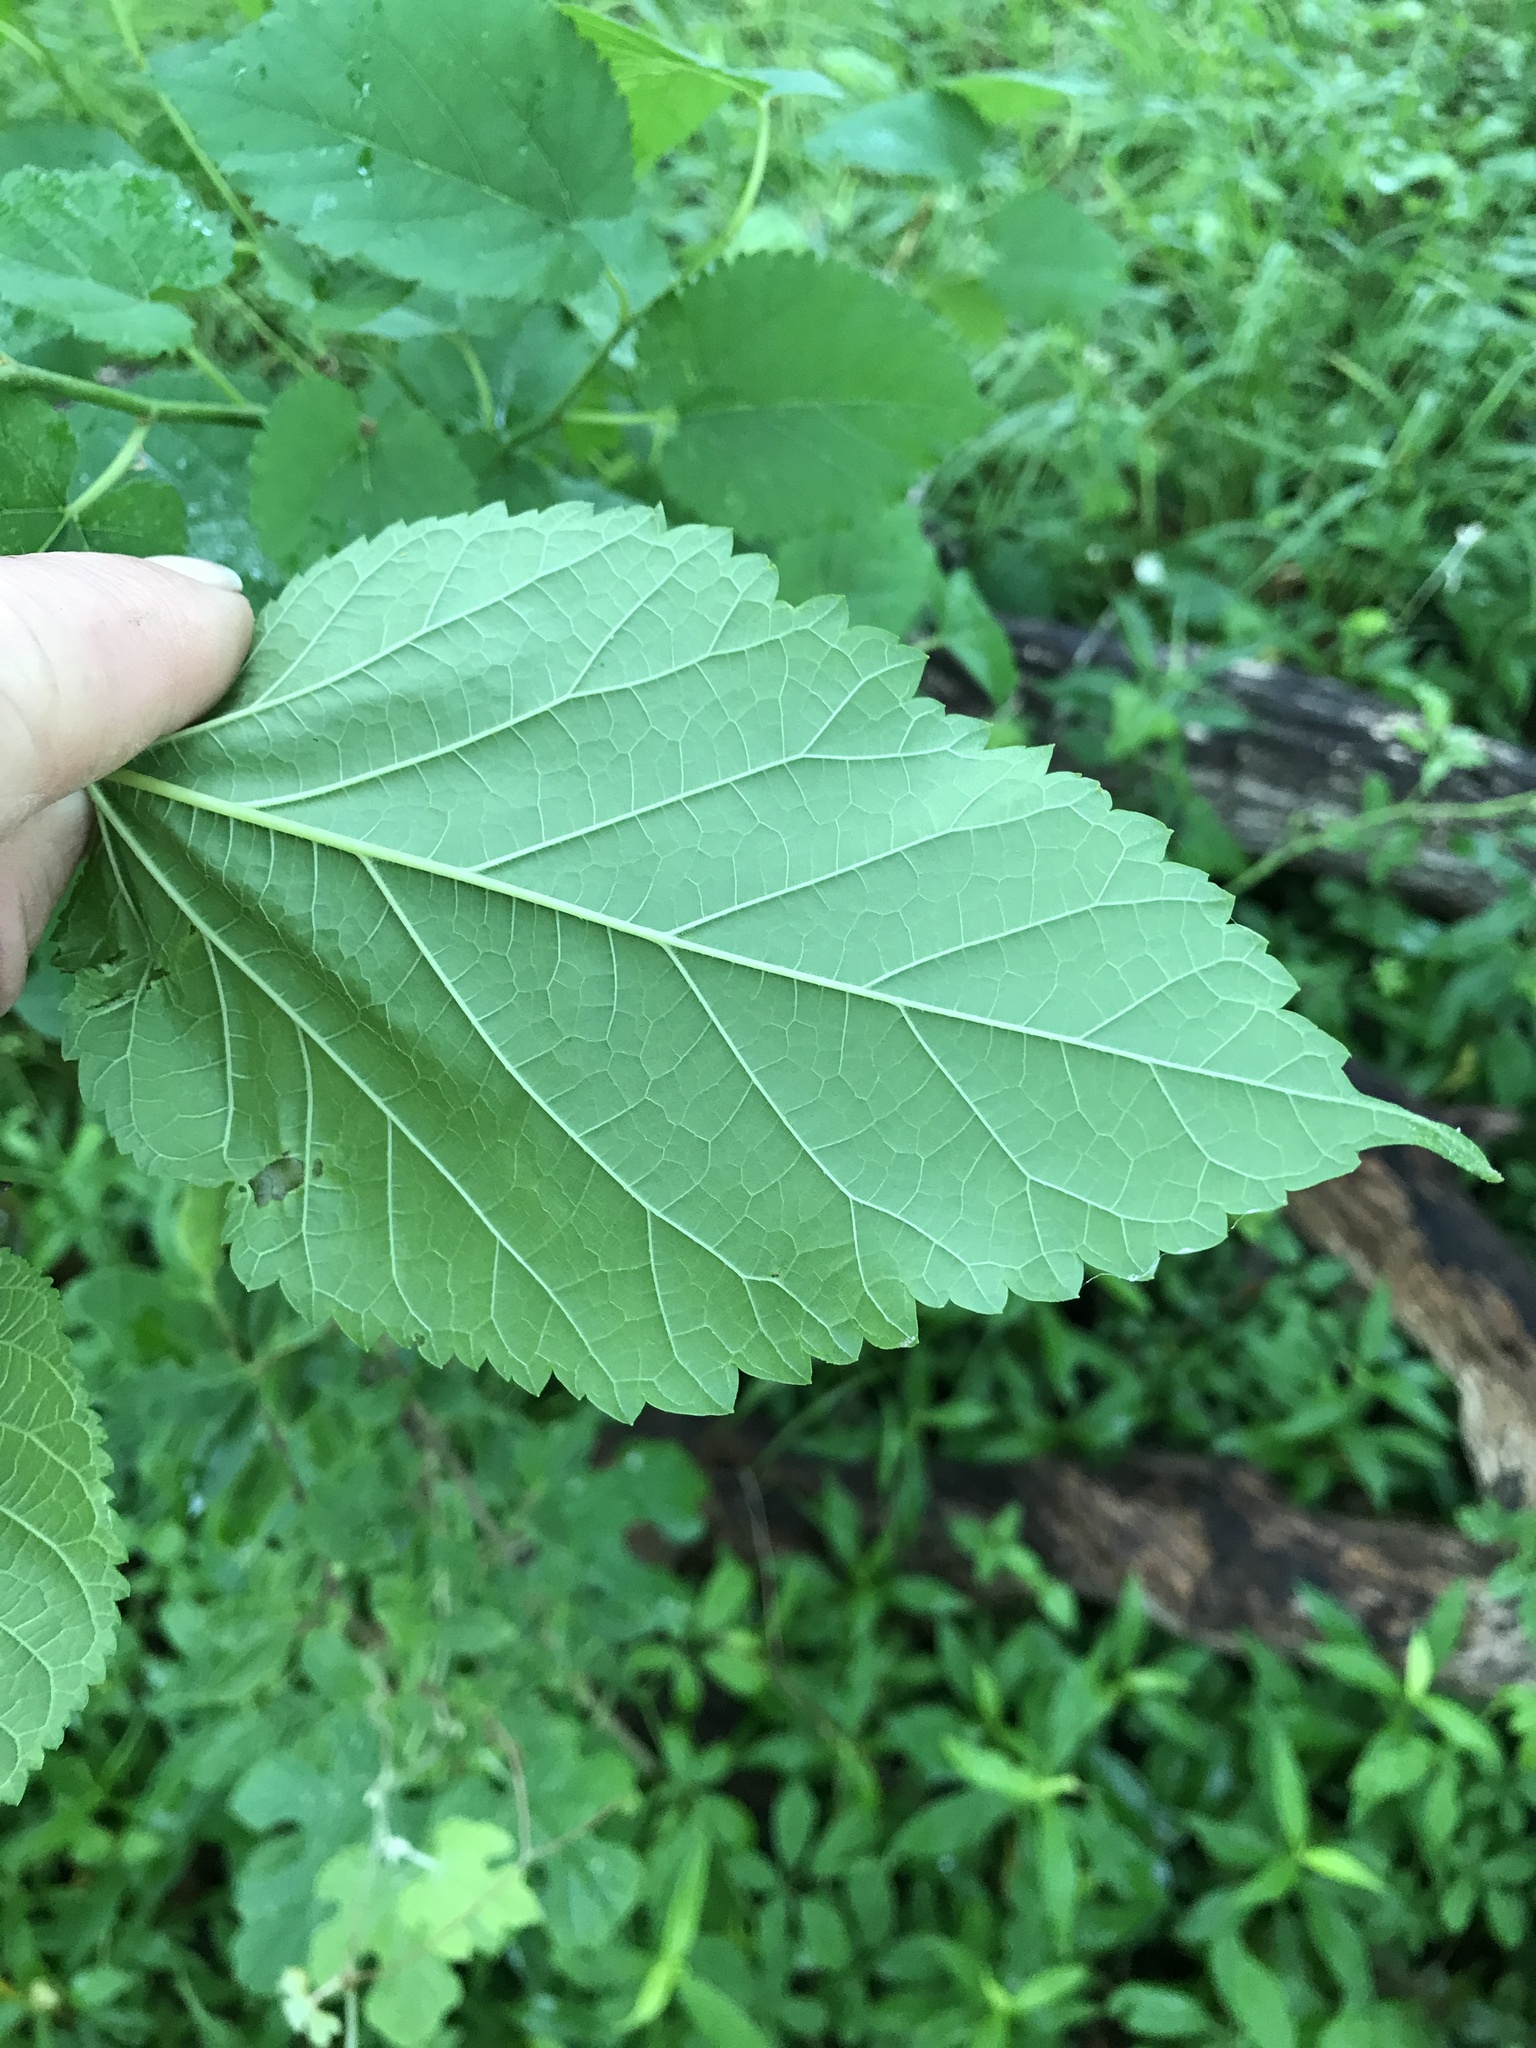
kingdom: Plantae
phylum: Tracheophyta
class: Magnoliopsida
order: Rosales
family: Moraceae
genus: Morus
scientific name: Morus alba
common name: White mulberry
